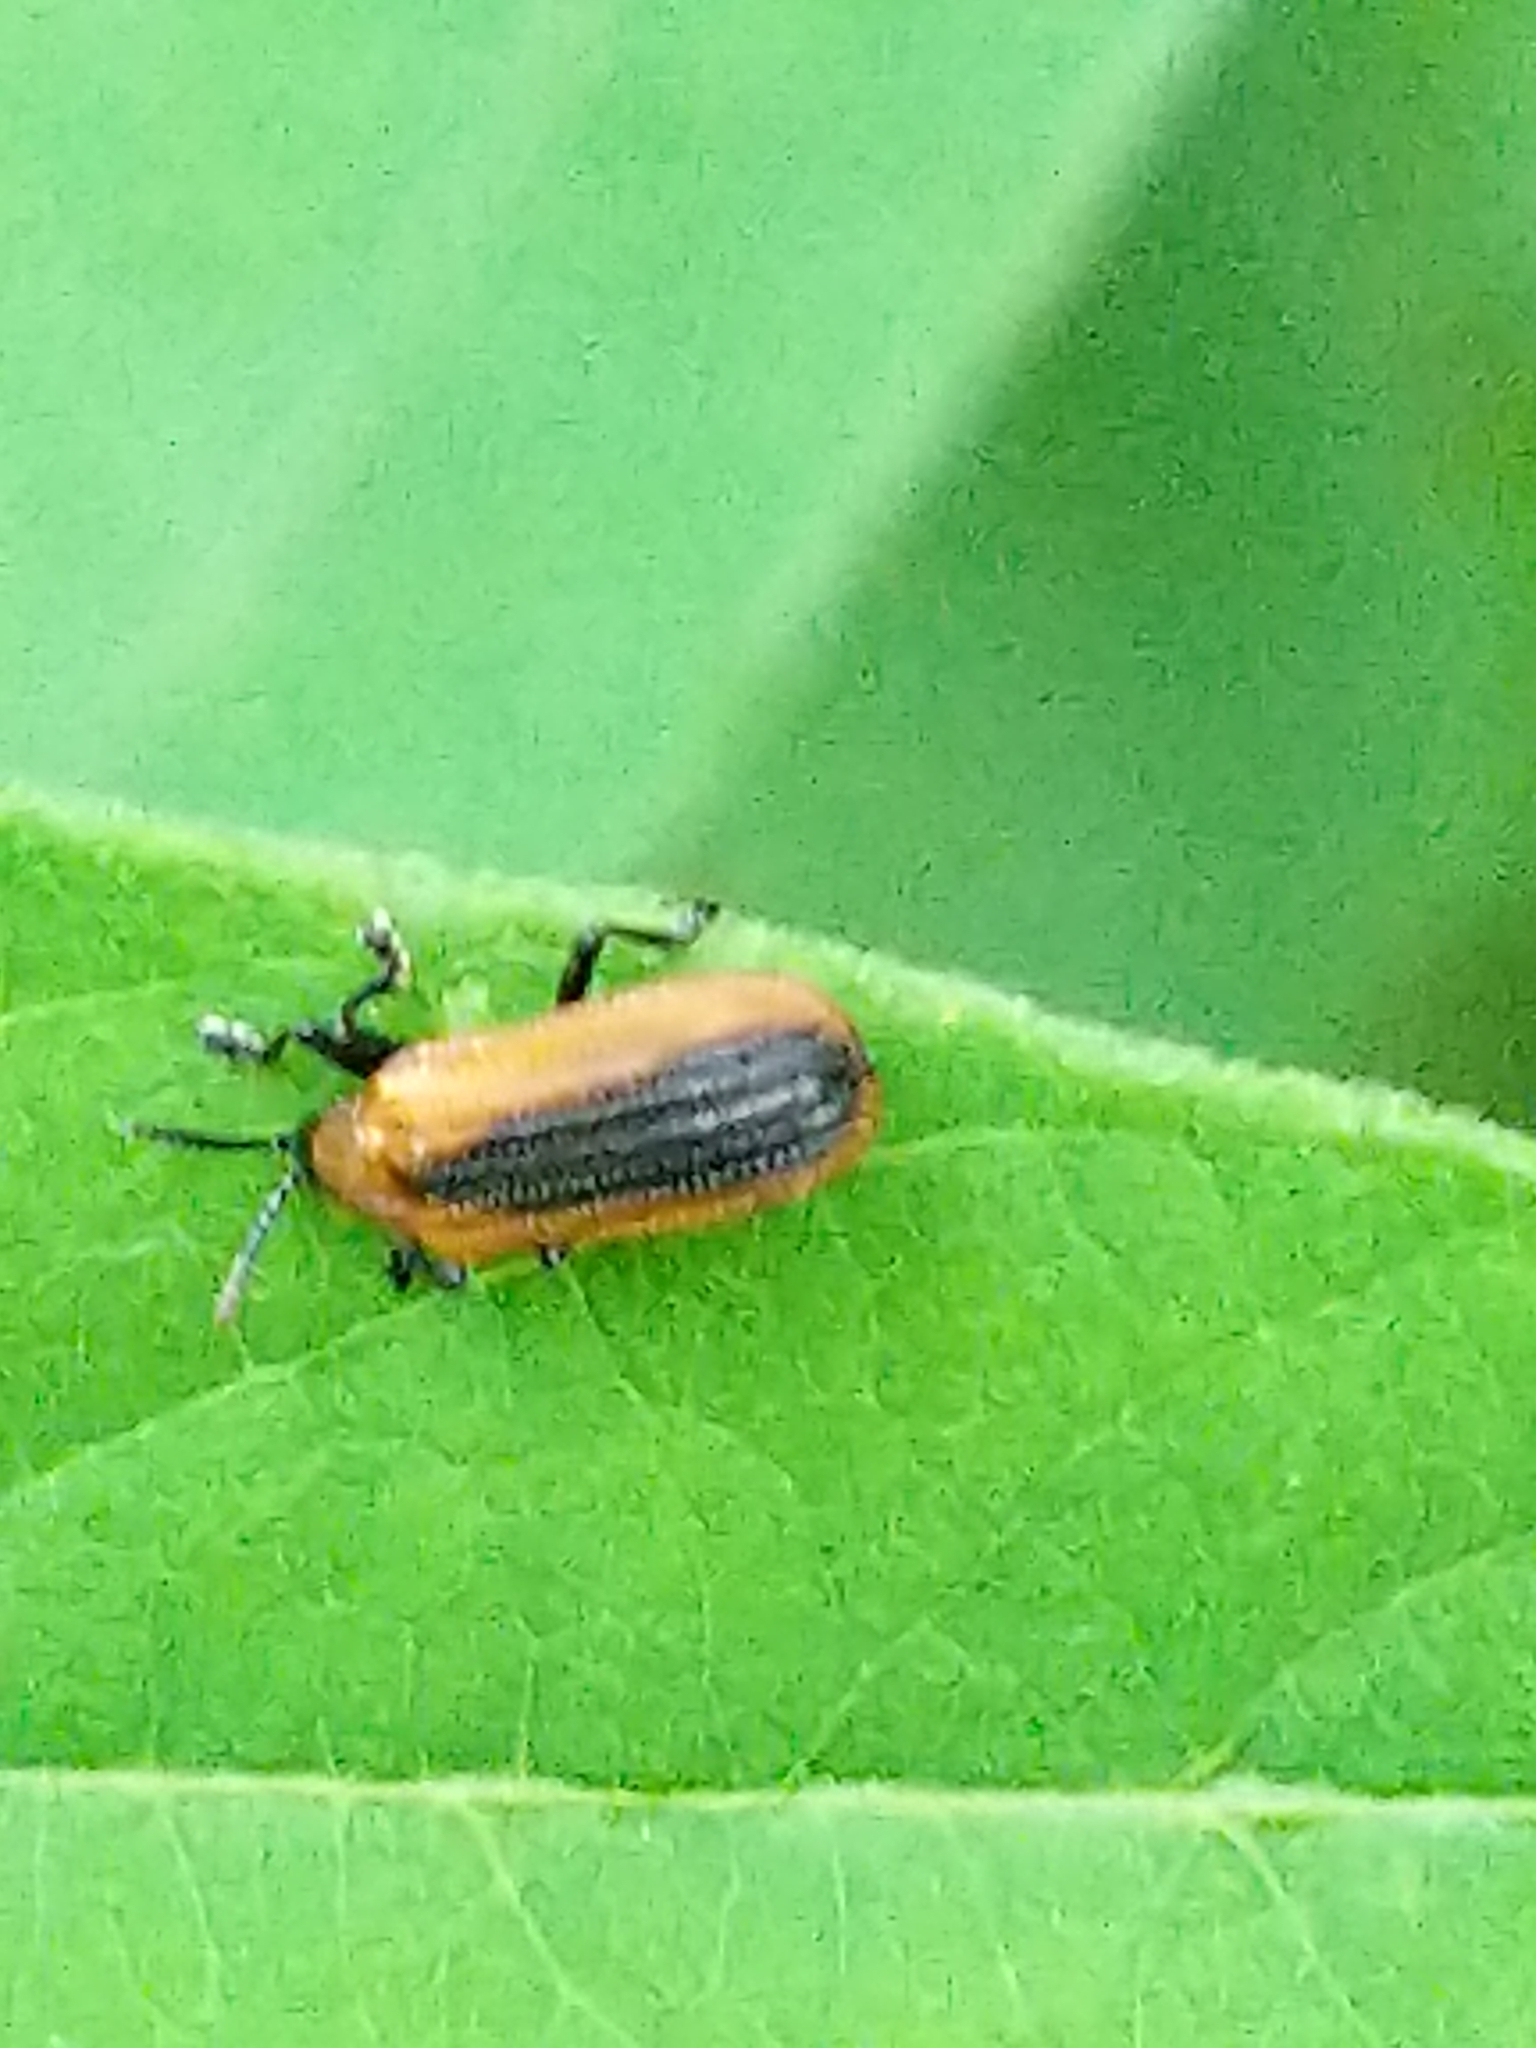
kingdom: Animalia
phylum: Arthropoda
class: Insecta
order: Coleoptera
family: Chrysomelidae
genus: Odontota
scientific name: Odontota dorsalis
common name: Locust leaf-miner beetle
